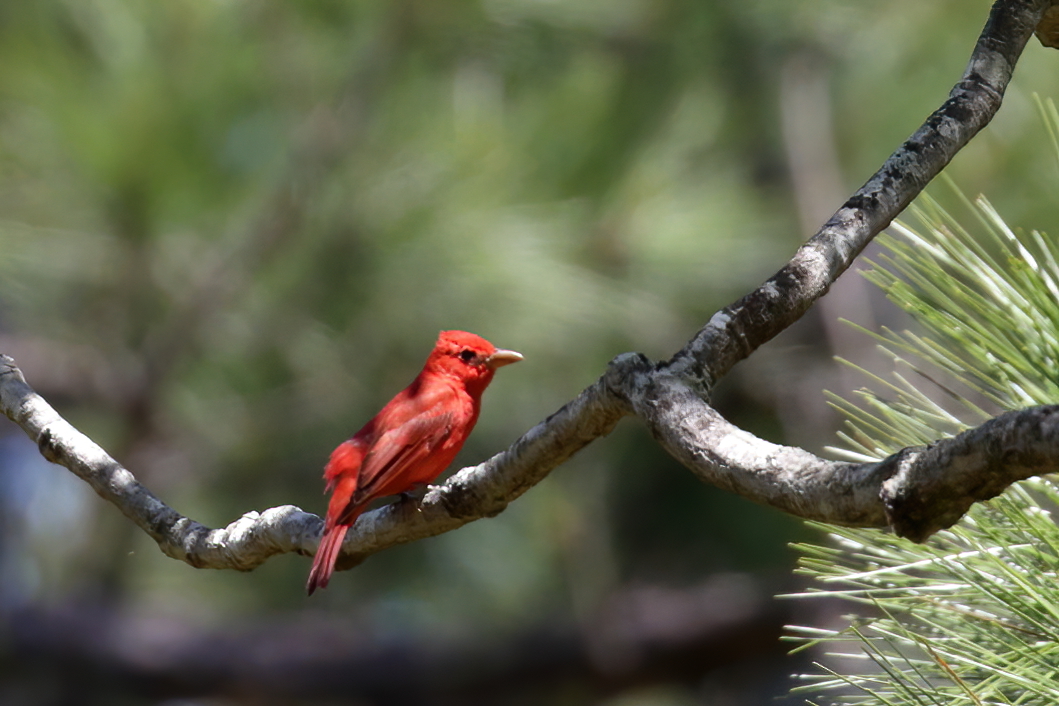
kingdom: Animalia
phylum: Chordata
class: Aves
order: Passeriformes
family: Cardinalidae
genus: Piranga
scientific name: Piranga rubra
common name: Summer tanager
